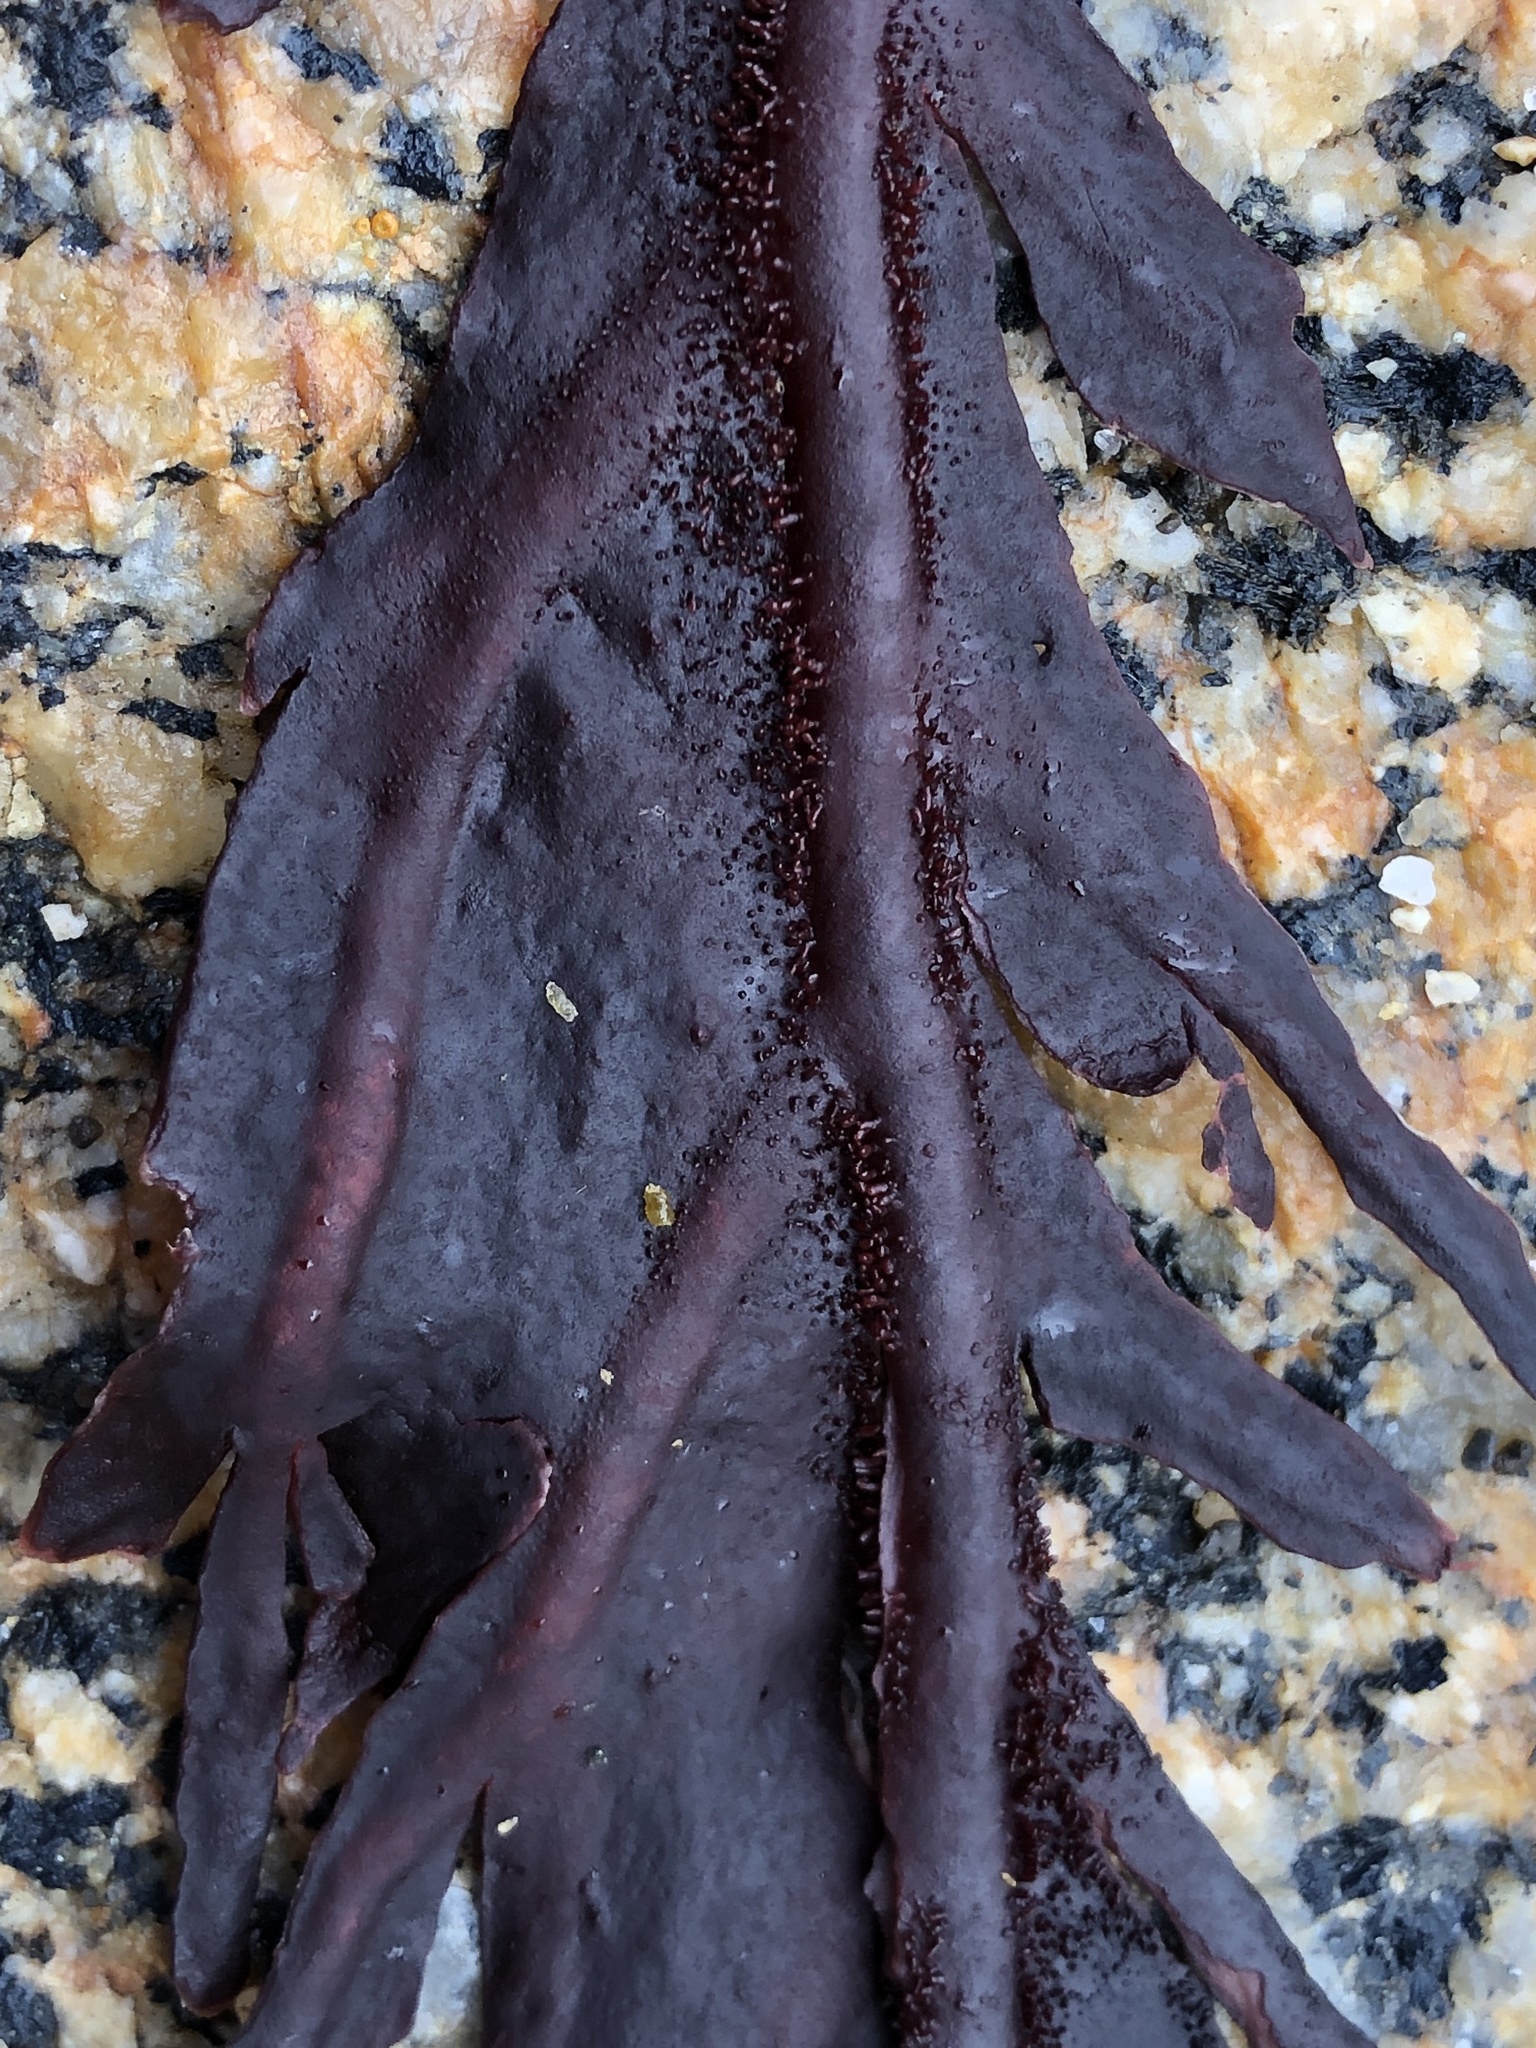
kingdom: Plantae
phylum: Rhodophyta
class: Florideophyceae
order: Gigartinales
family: Kallymeniaceae
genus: Erythrophyllum
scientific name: Erythrophyllum delesserioides
